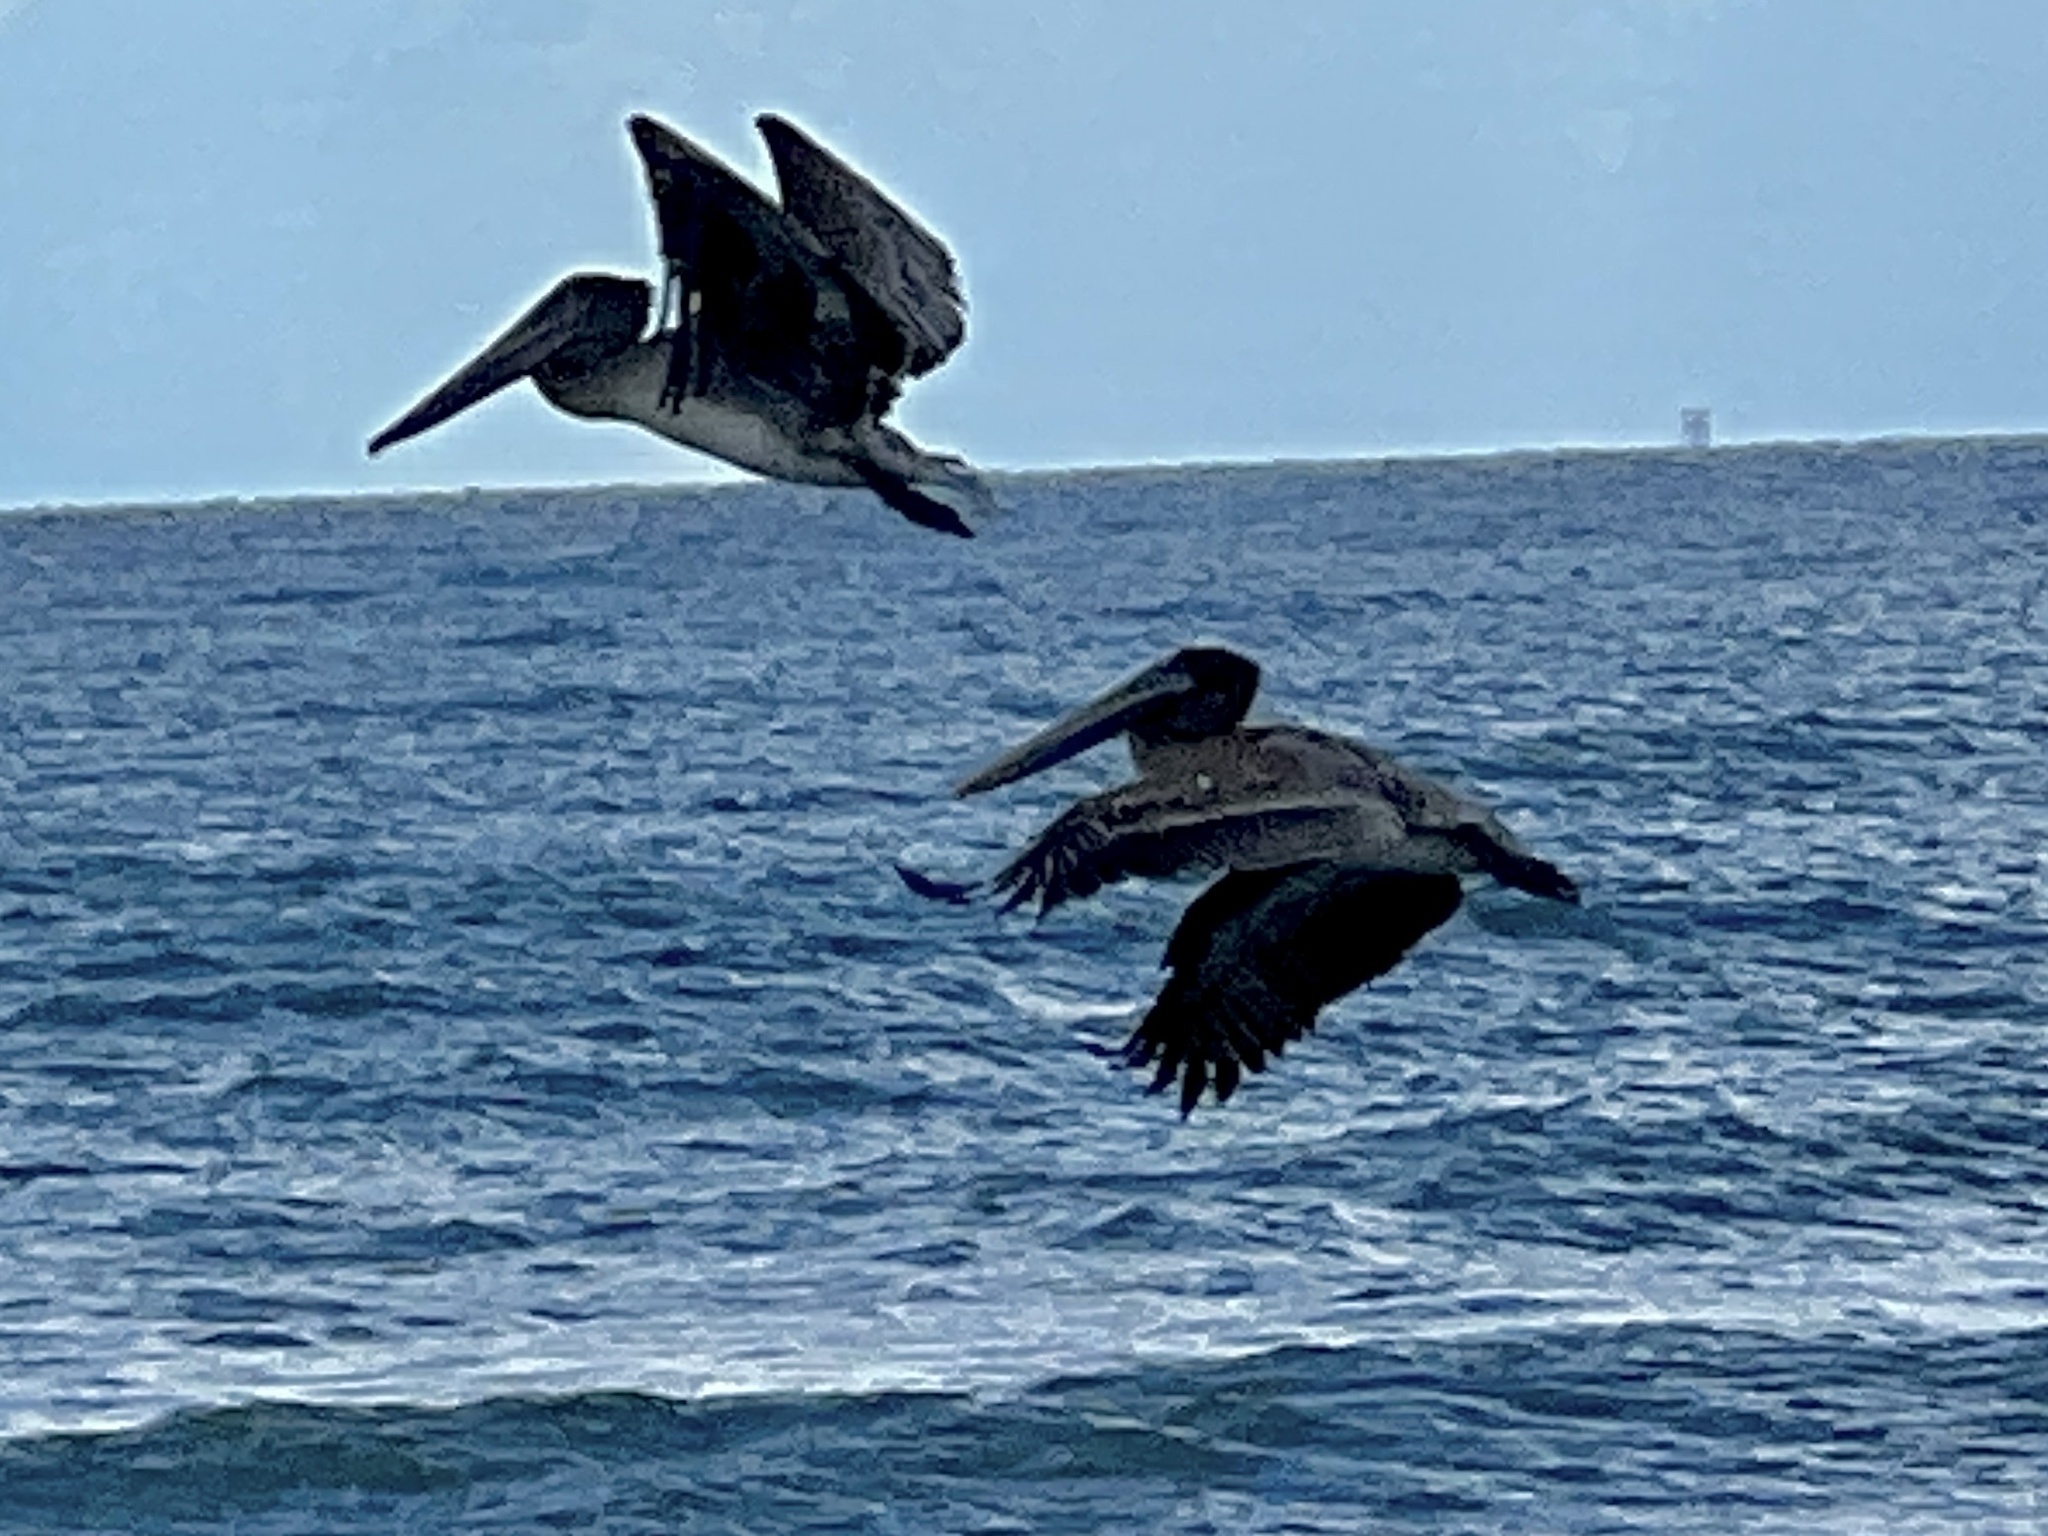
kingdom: Animalia
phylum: Chordata
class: Aves
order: Pelecaniformes
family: Pelecanidae
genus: Pelecanus
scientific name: Pelecanus occidentalis
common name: Brown pelican
